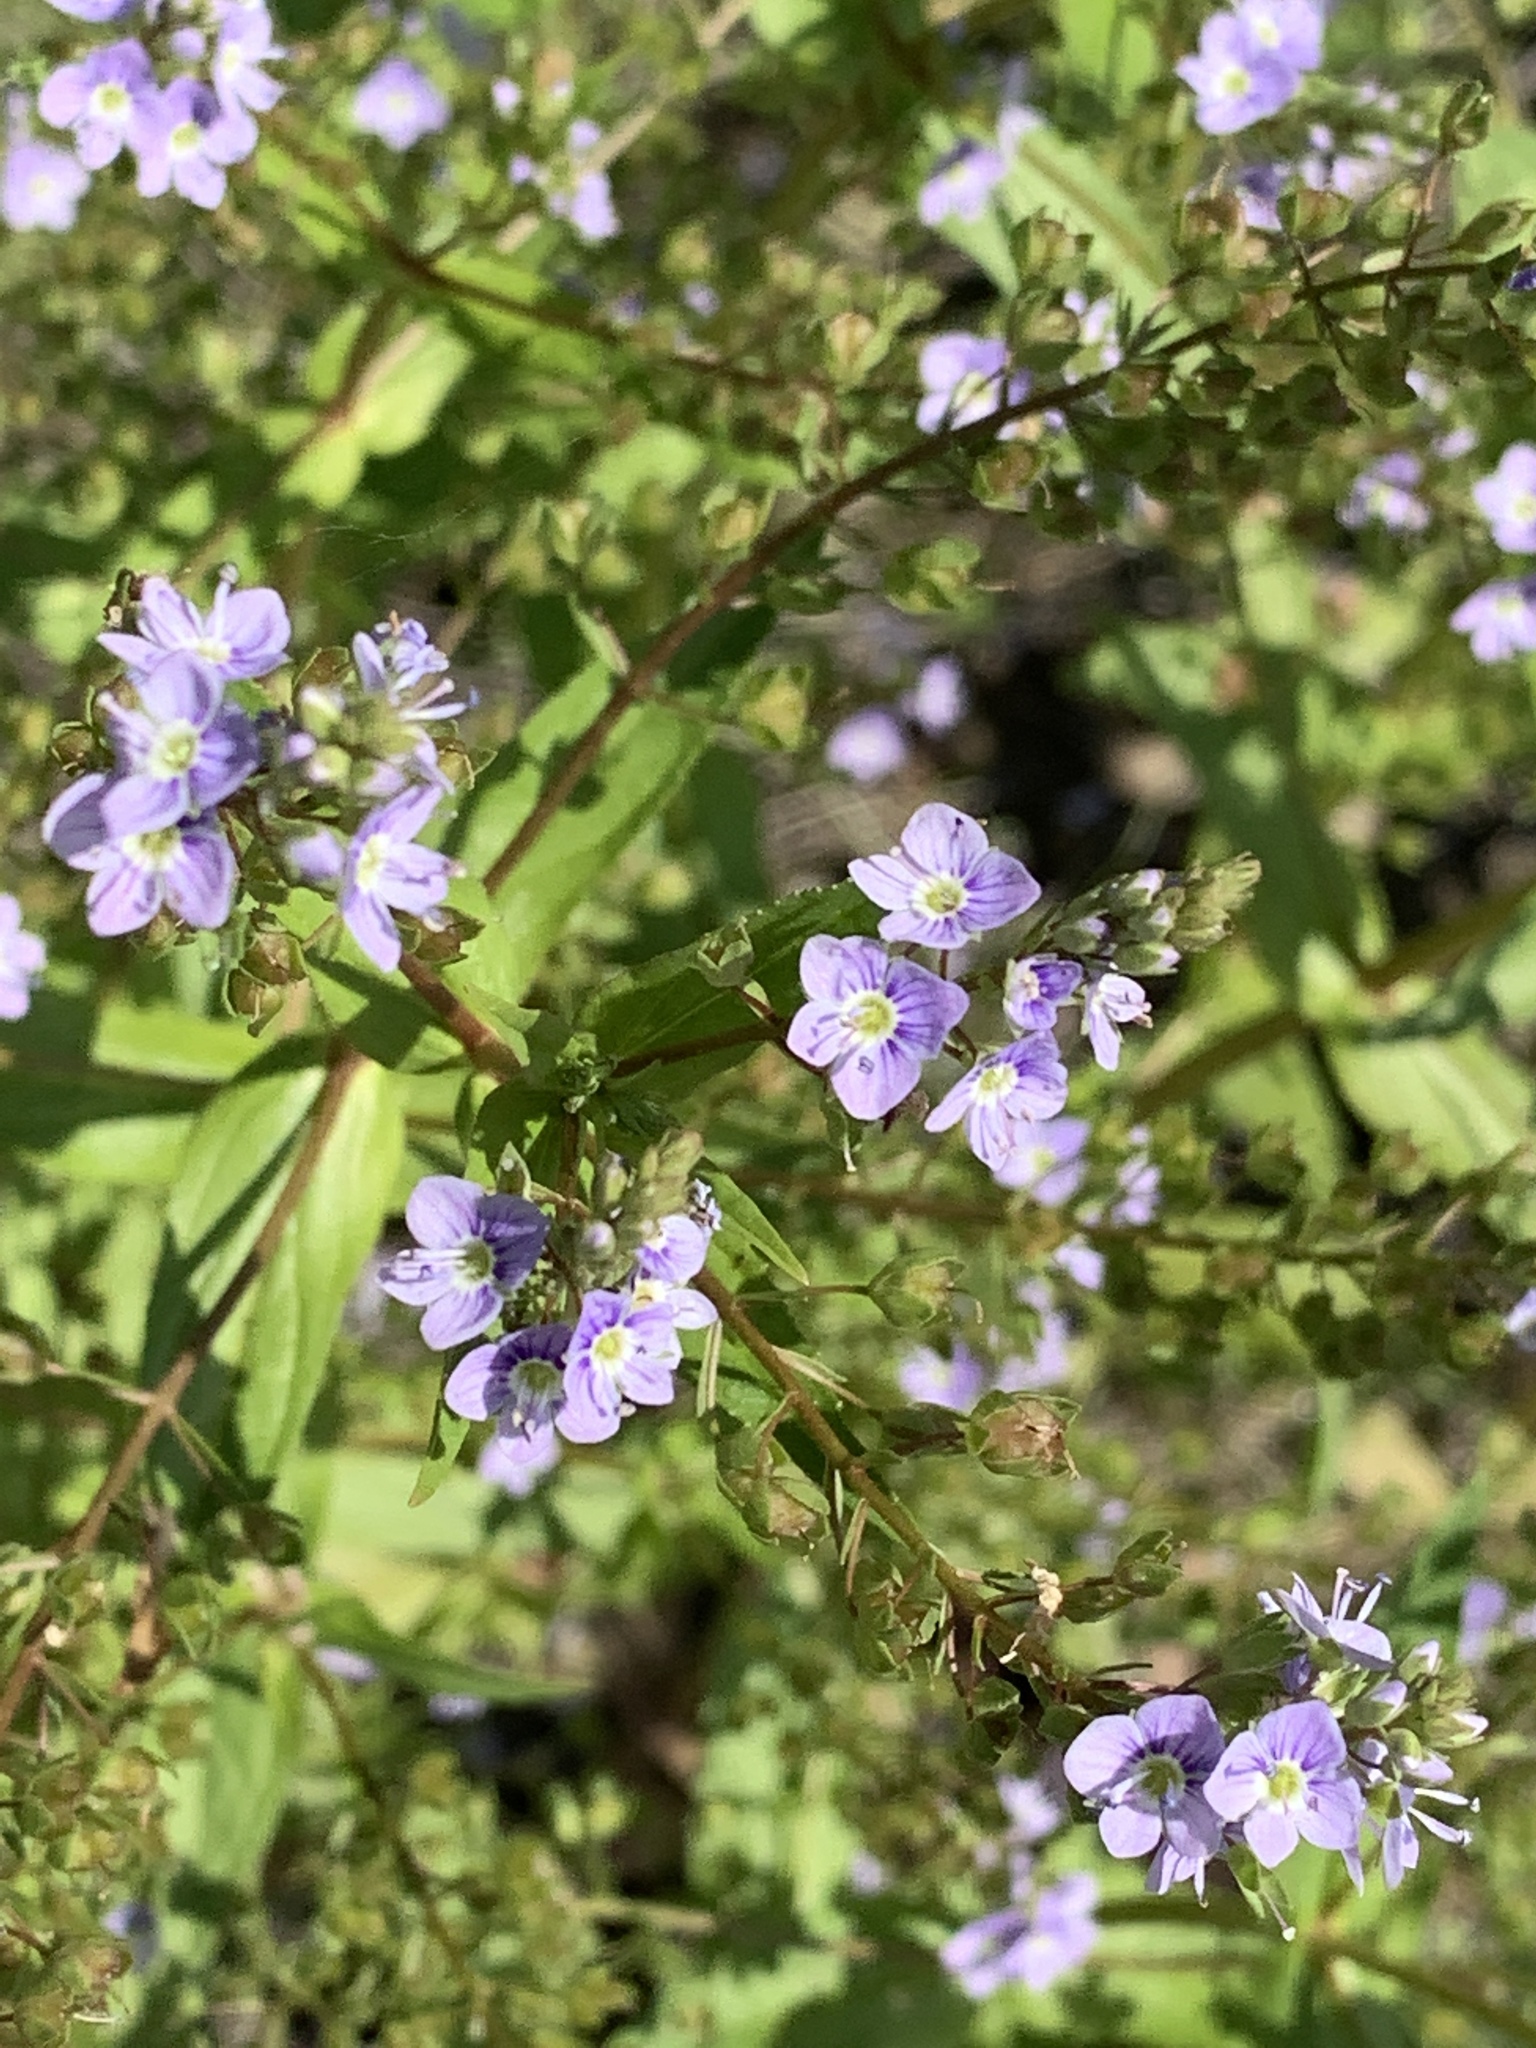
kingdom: Plantae
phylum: Tracheophyta
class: Magnoliopsida
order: Lamiales
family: Plantaginaceae
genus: Veronica
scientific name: Veronica anagallis-aquatica
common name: Water speedwell
